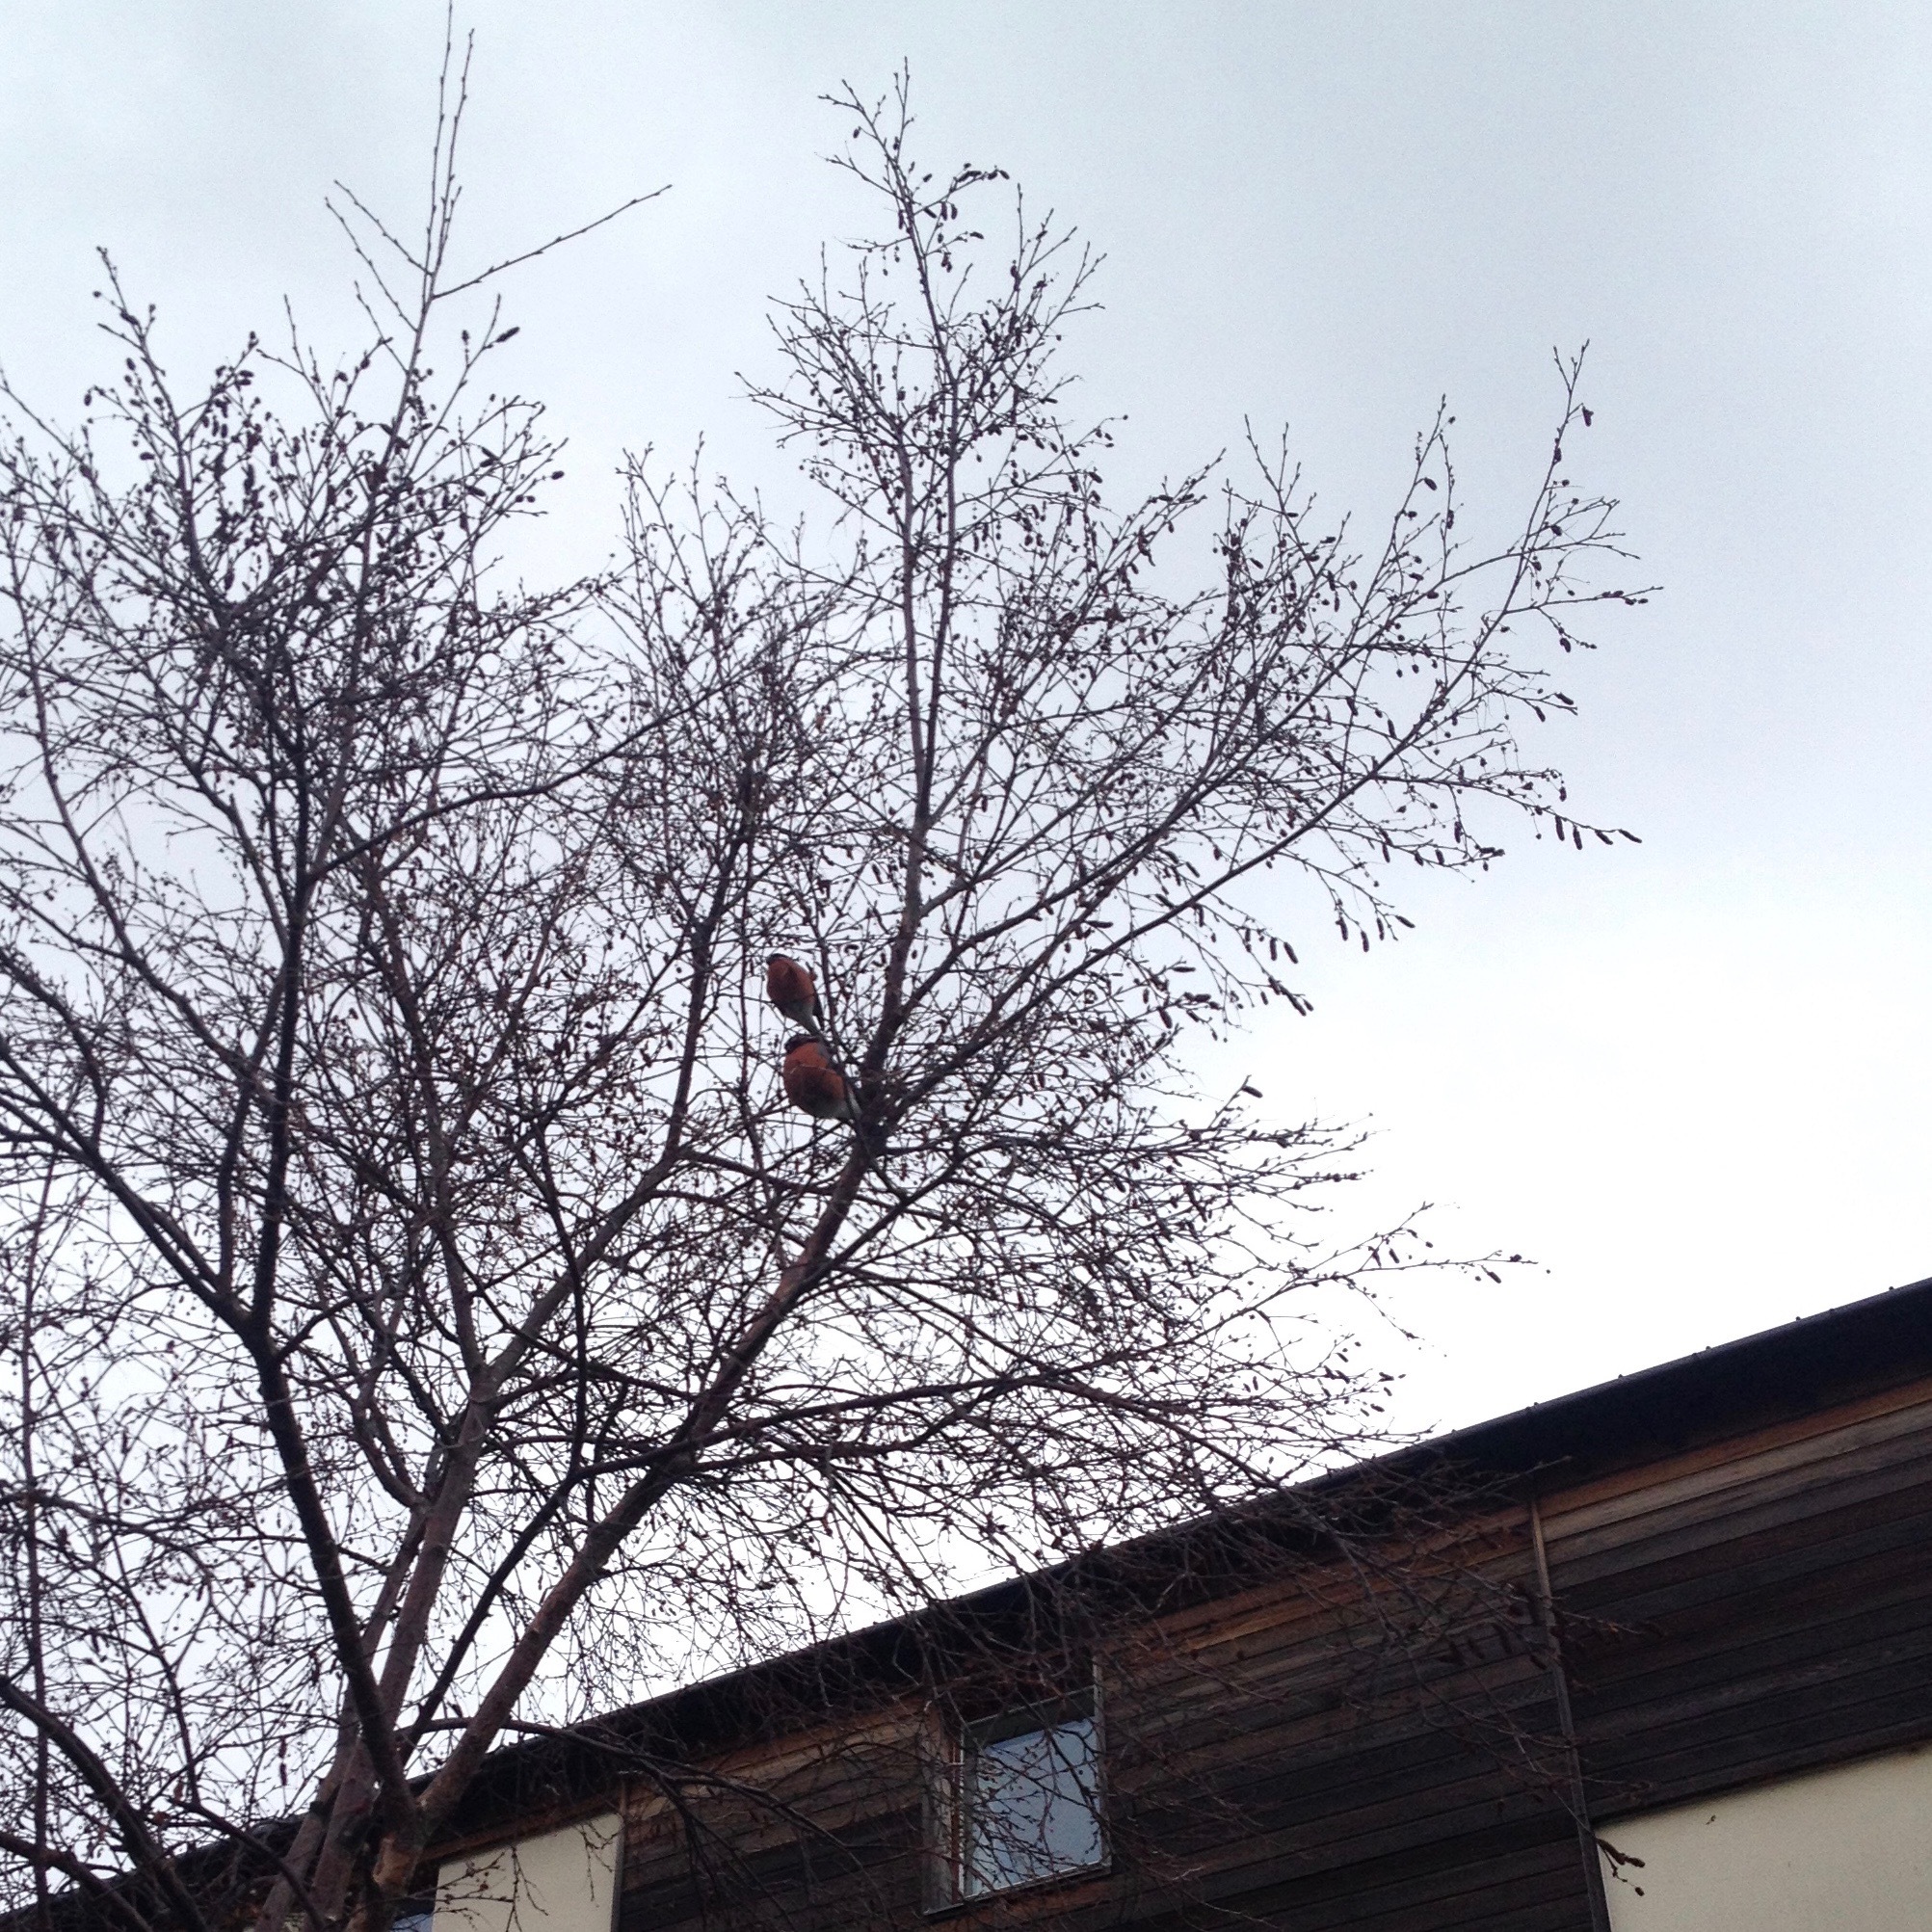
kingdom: Animalia
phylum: Chordata
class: Aves
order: Passeriformes
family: Fringillidae
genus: Pyrrhula
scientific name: Pyrrhula pyrrhula
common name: Eurasian bullfinch
